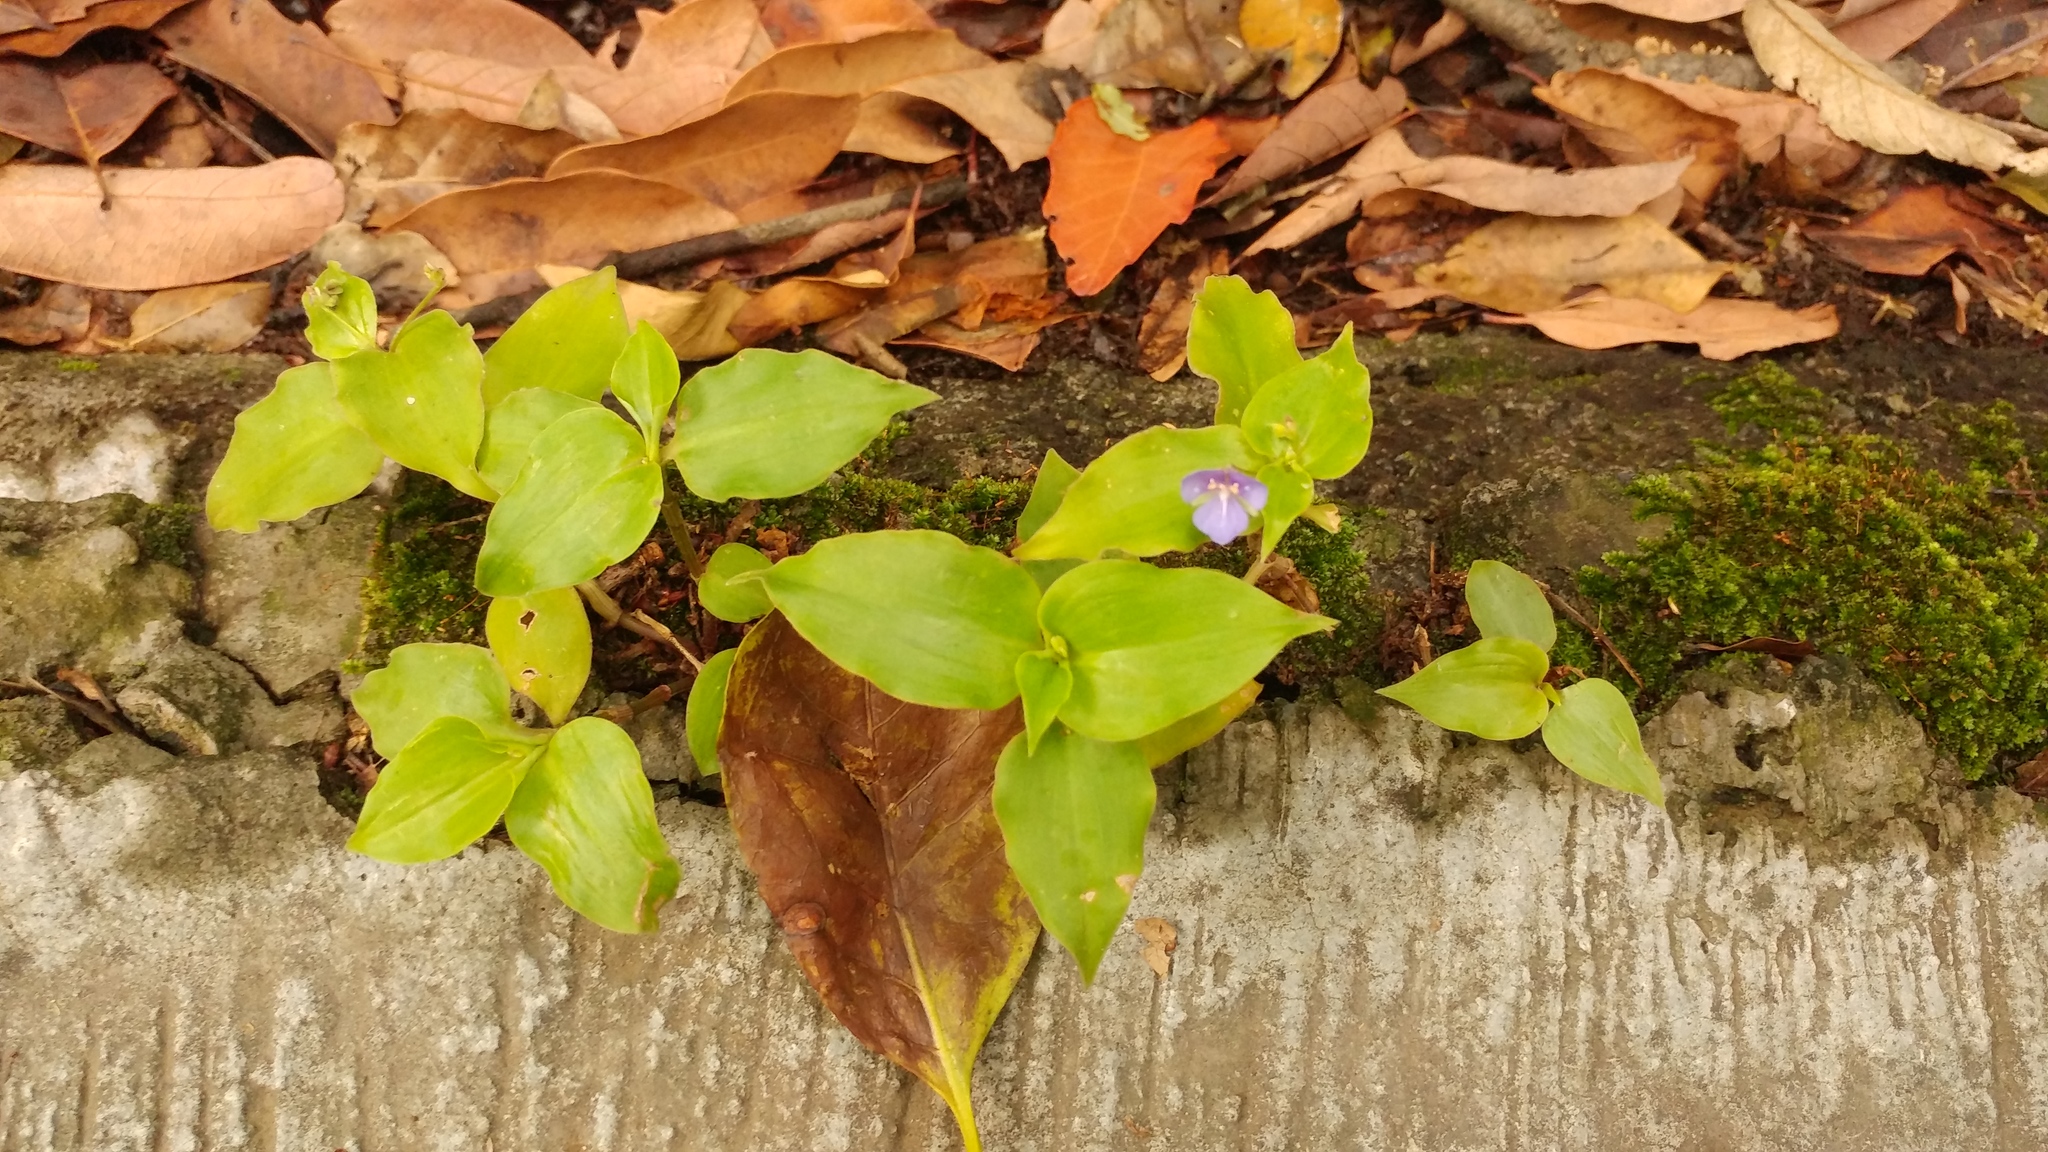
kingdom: Plantae
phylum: Tracheophyta
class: Liliopsida
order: Commelinales
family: Commelinaceae
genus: Tinantia
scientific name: Tinantia pringlei
